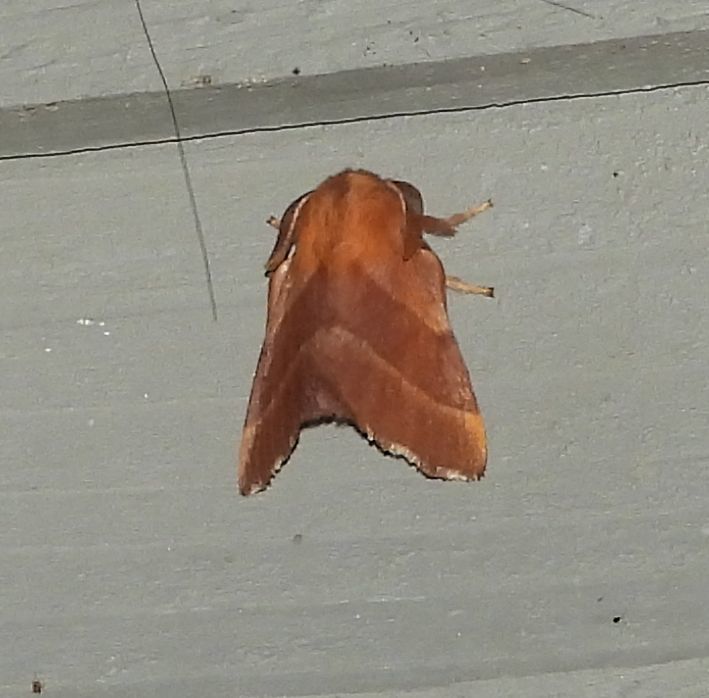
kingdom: Animalia
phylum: Arthropoda
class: Insecta
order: Lepidoptera
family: Lasiocampidae
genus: Malacosoma
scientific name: Malacosoma disstria
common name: Forest tent caterpillar
